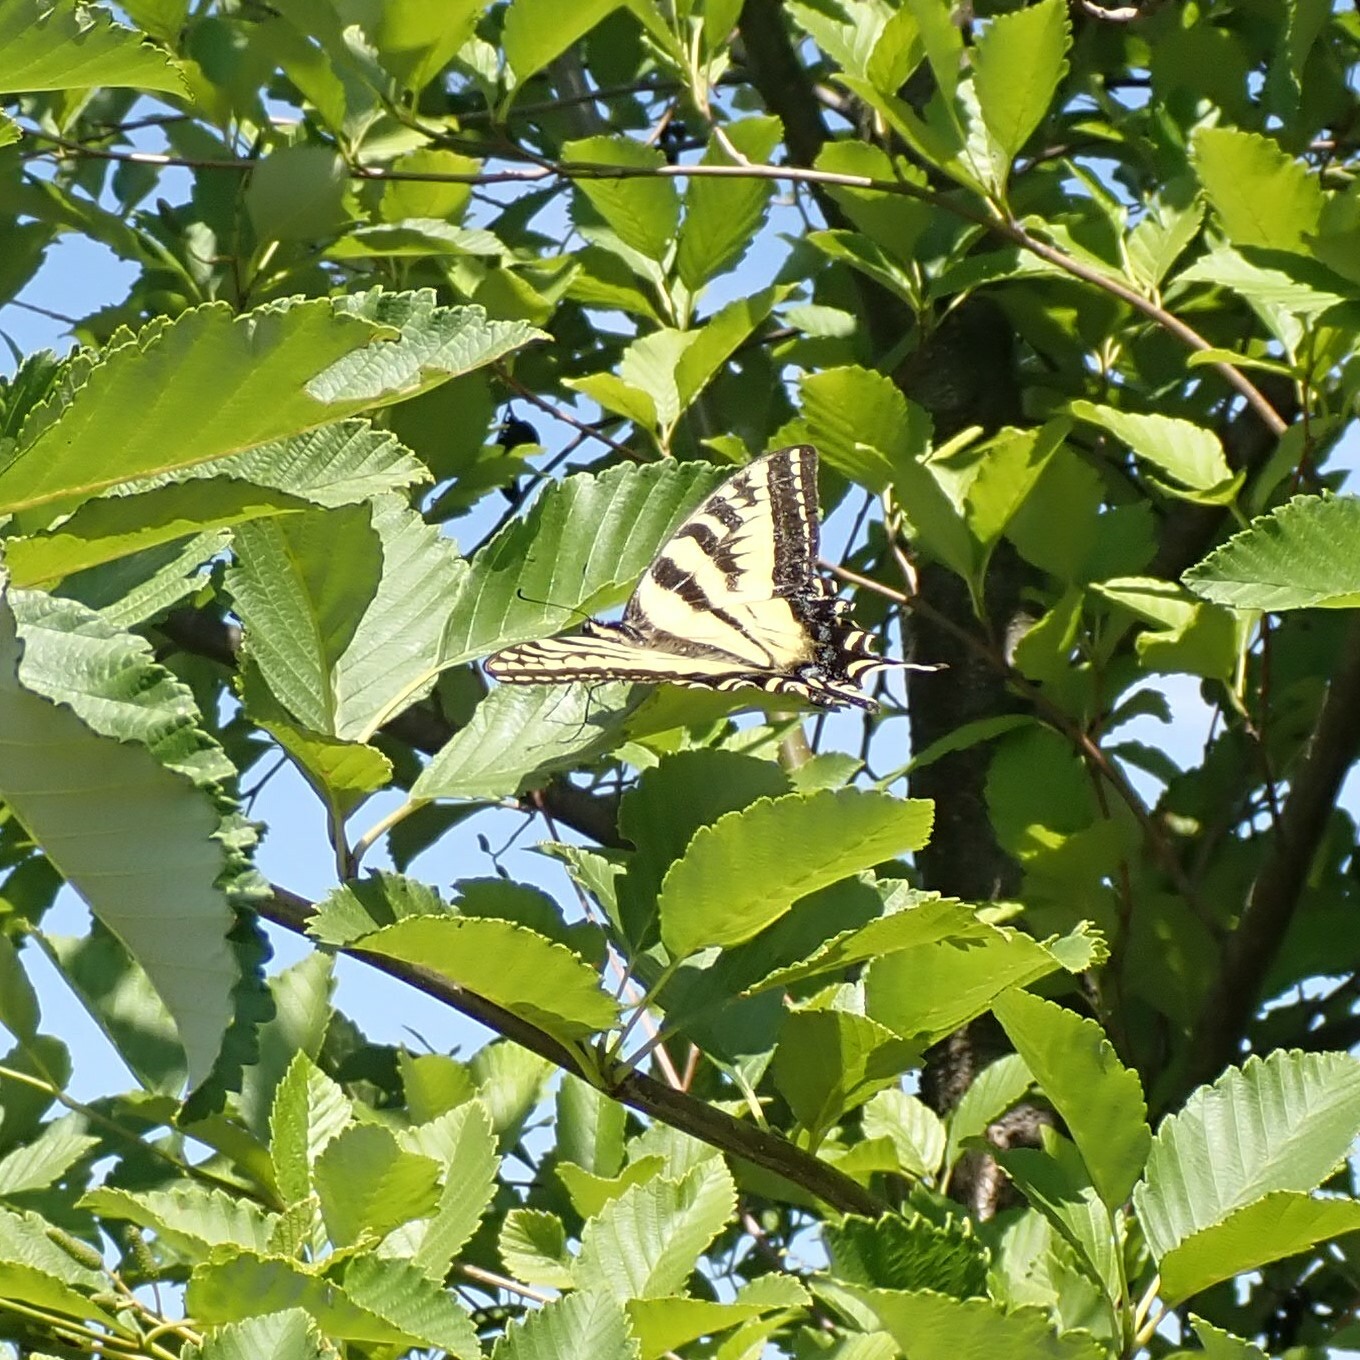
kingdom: Animalia
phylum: Arthropoda
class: Insecta
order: Lepidoptera
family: Papilionidae
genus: Papilio
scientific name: Papilio rutulus
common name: Western tiger swallowtail
